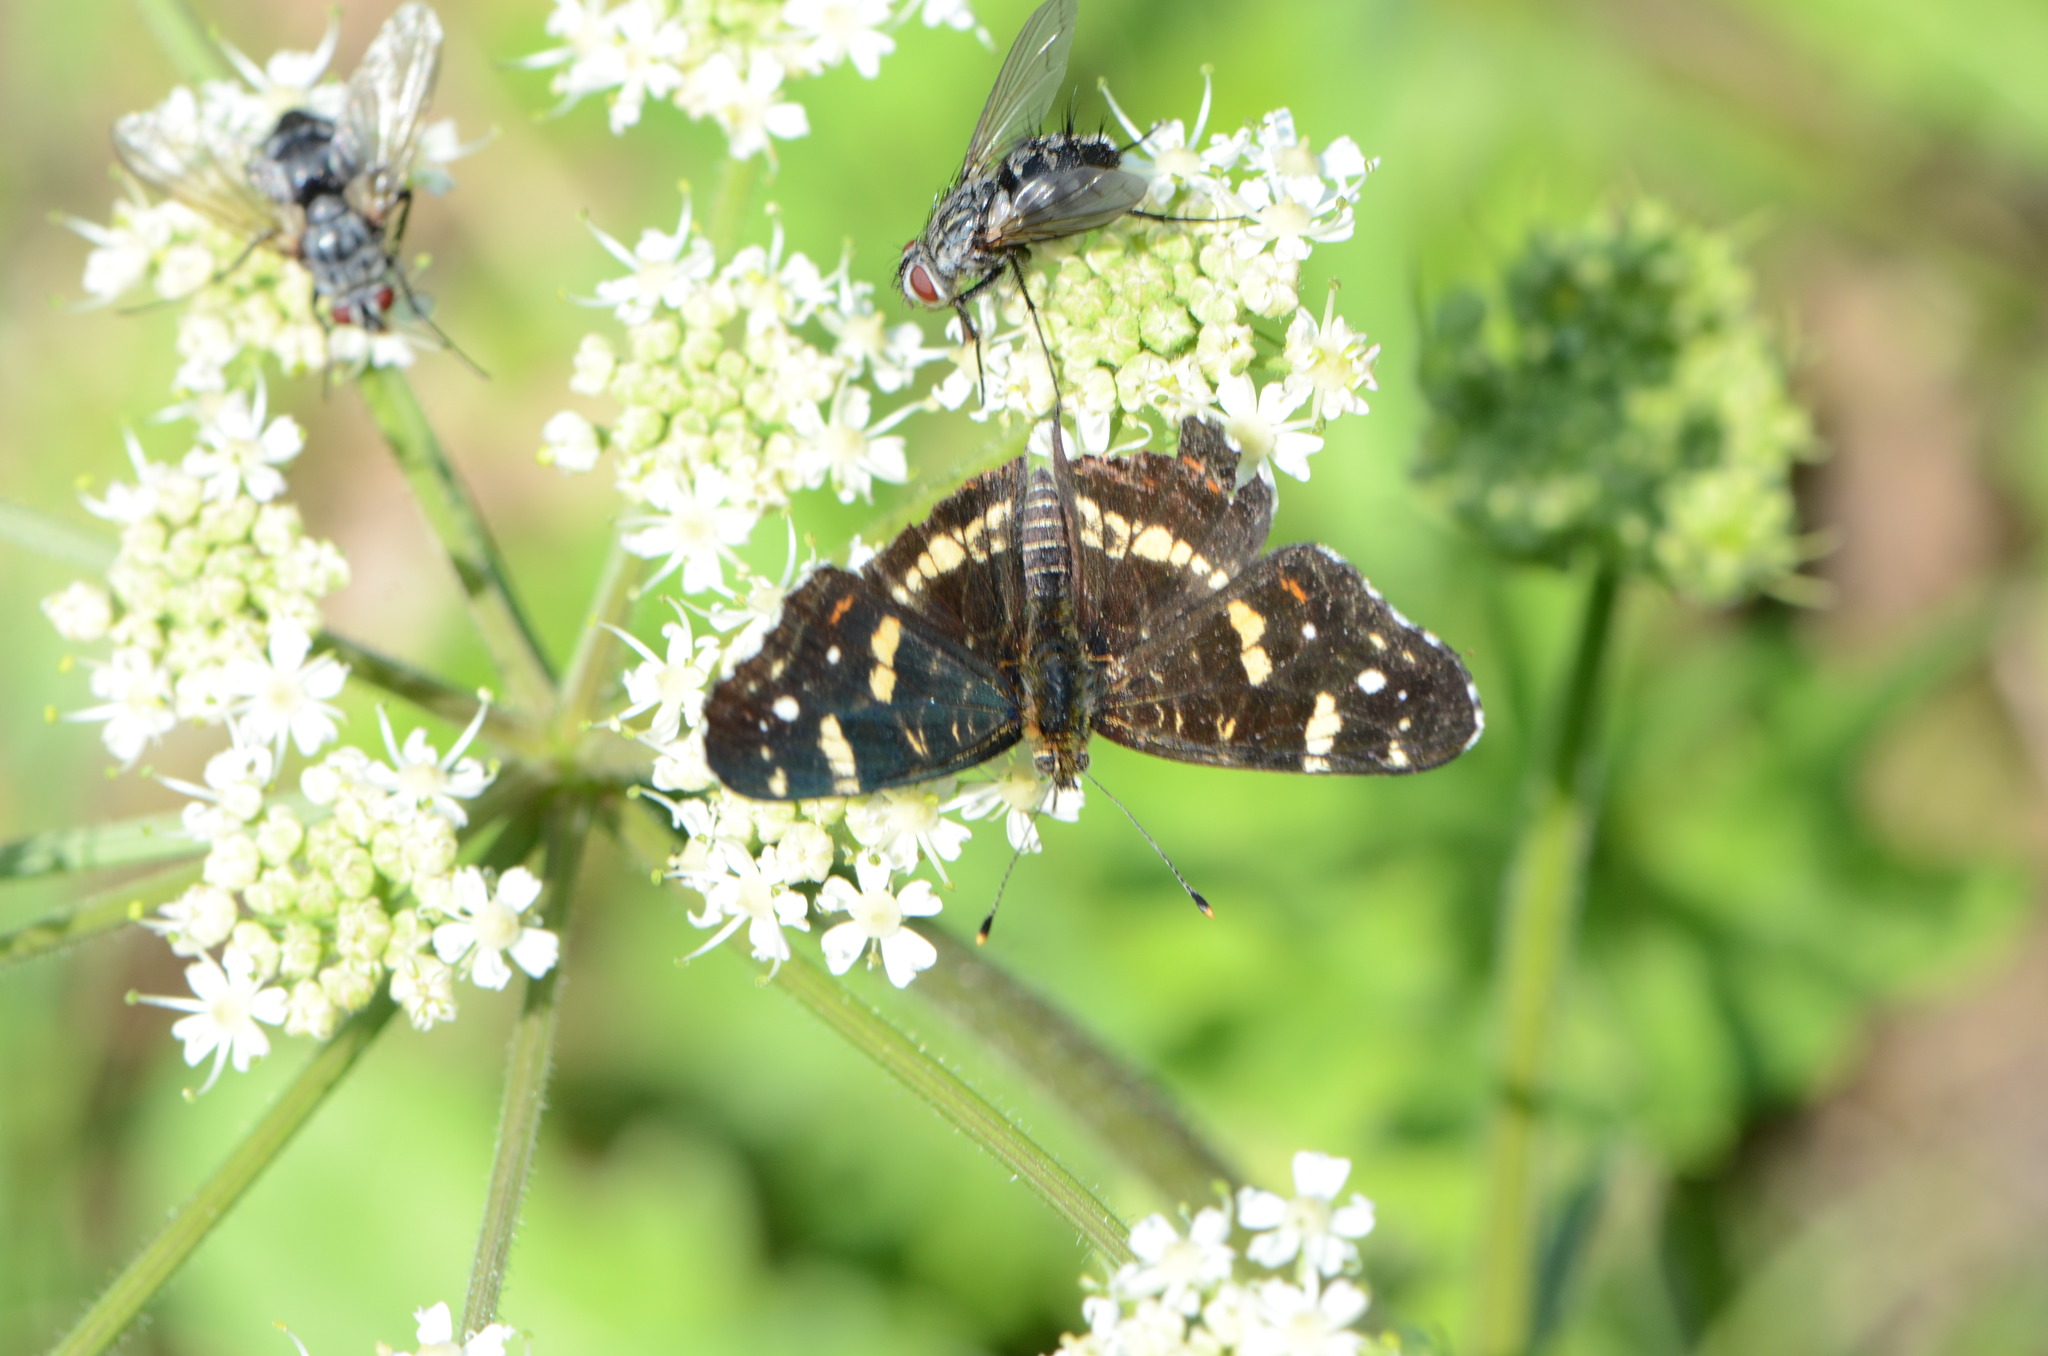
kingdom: Animalia
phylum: Arthropoda
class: Insecta
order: Lepidoptera
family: Nymphalidae
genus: Araschnia
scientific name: Araschnia levana
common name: Map butterfly
